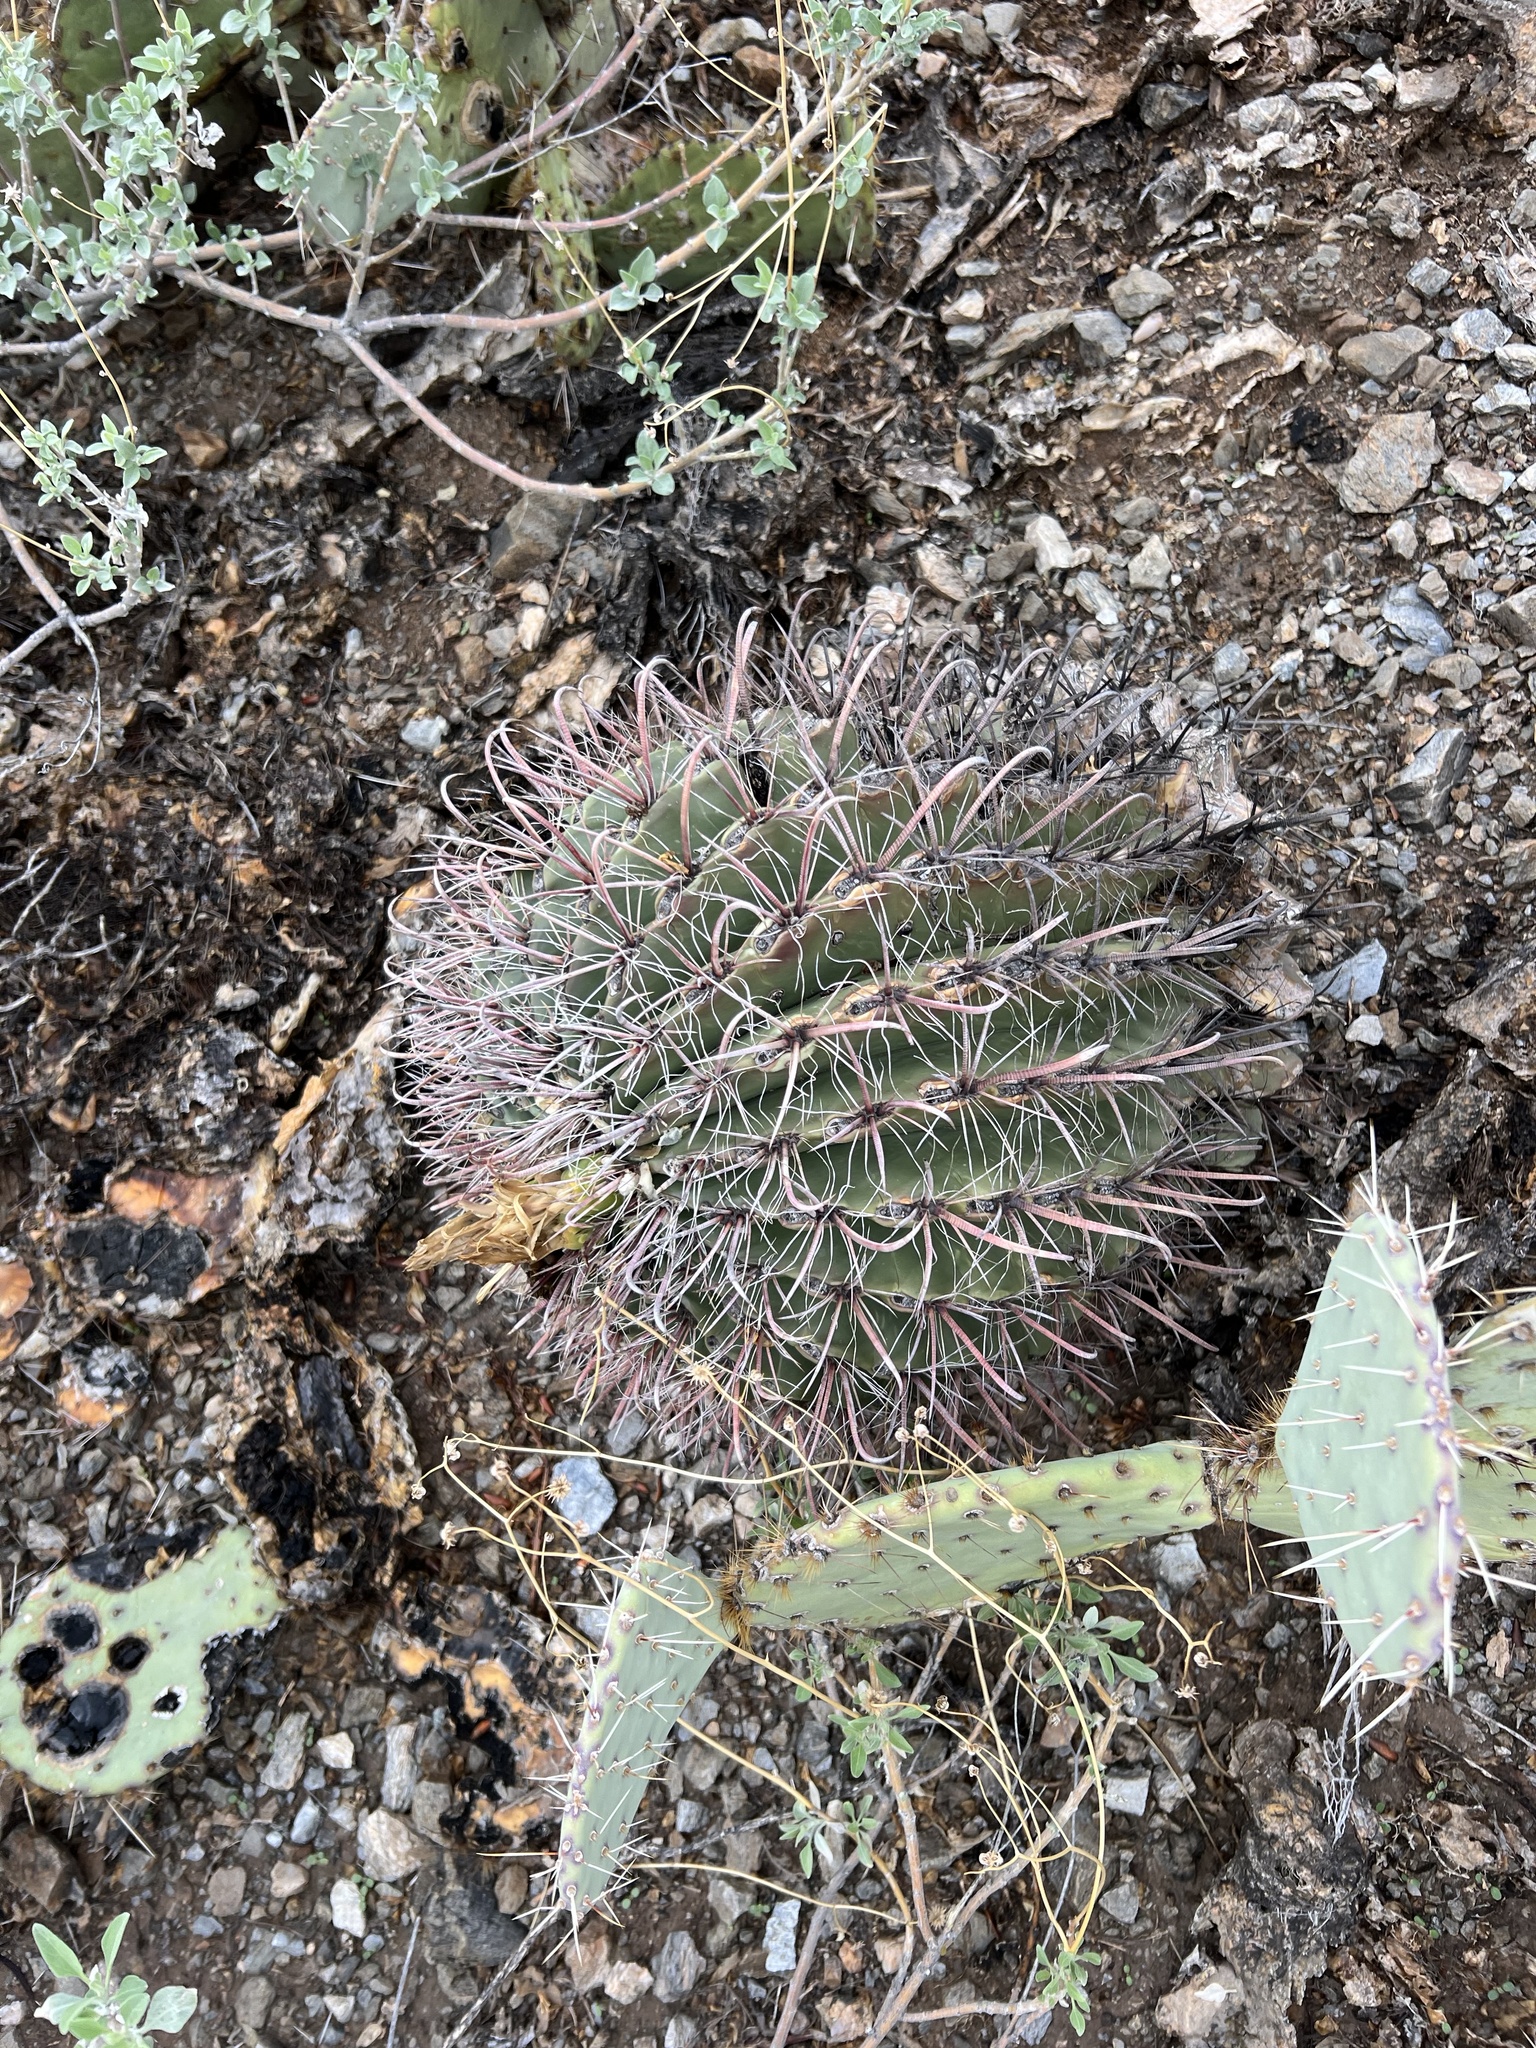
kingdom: Plantae
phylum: Tracheophyta
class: Magnoliopsida
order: Caryophyllales
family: Cactaceae
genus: Ferocactus
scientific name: Ferocactus wislizeni
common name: Candy barrel cactus
